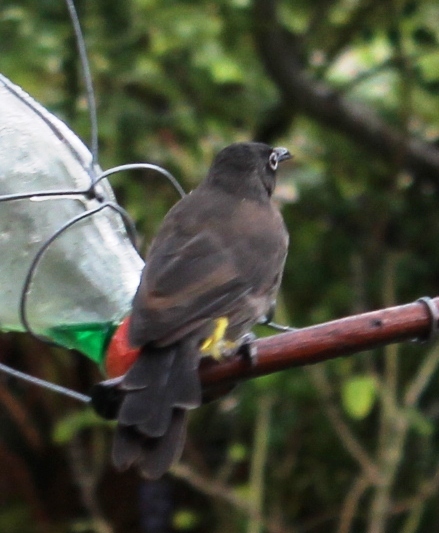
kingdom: Animalia
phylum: Chordata
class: Aves
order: Passeriformes
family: Pycnonotidae
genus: Pycnonotus
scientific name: Pycnonotus capensis
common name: Cape bulbul
